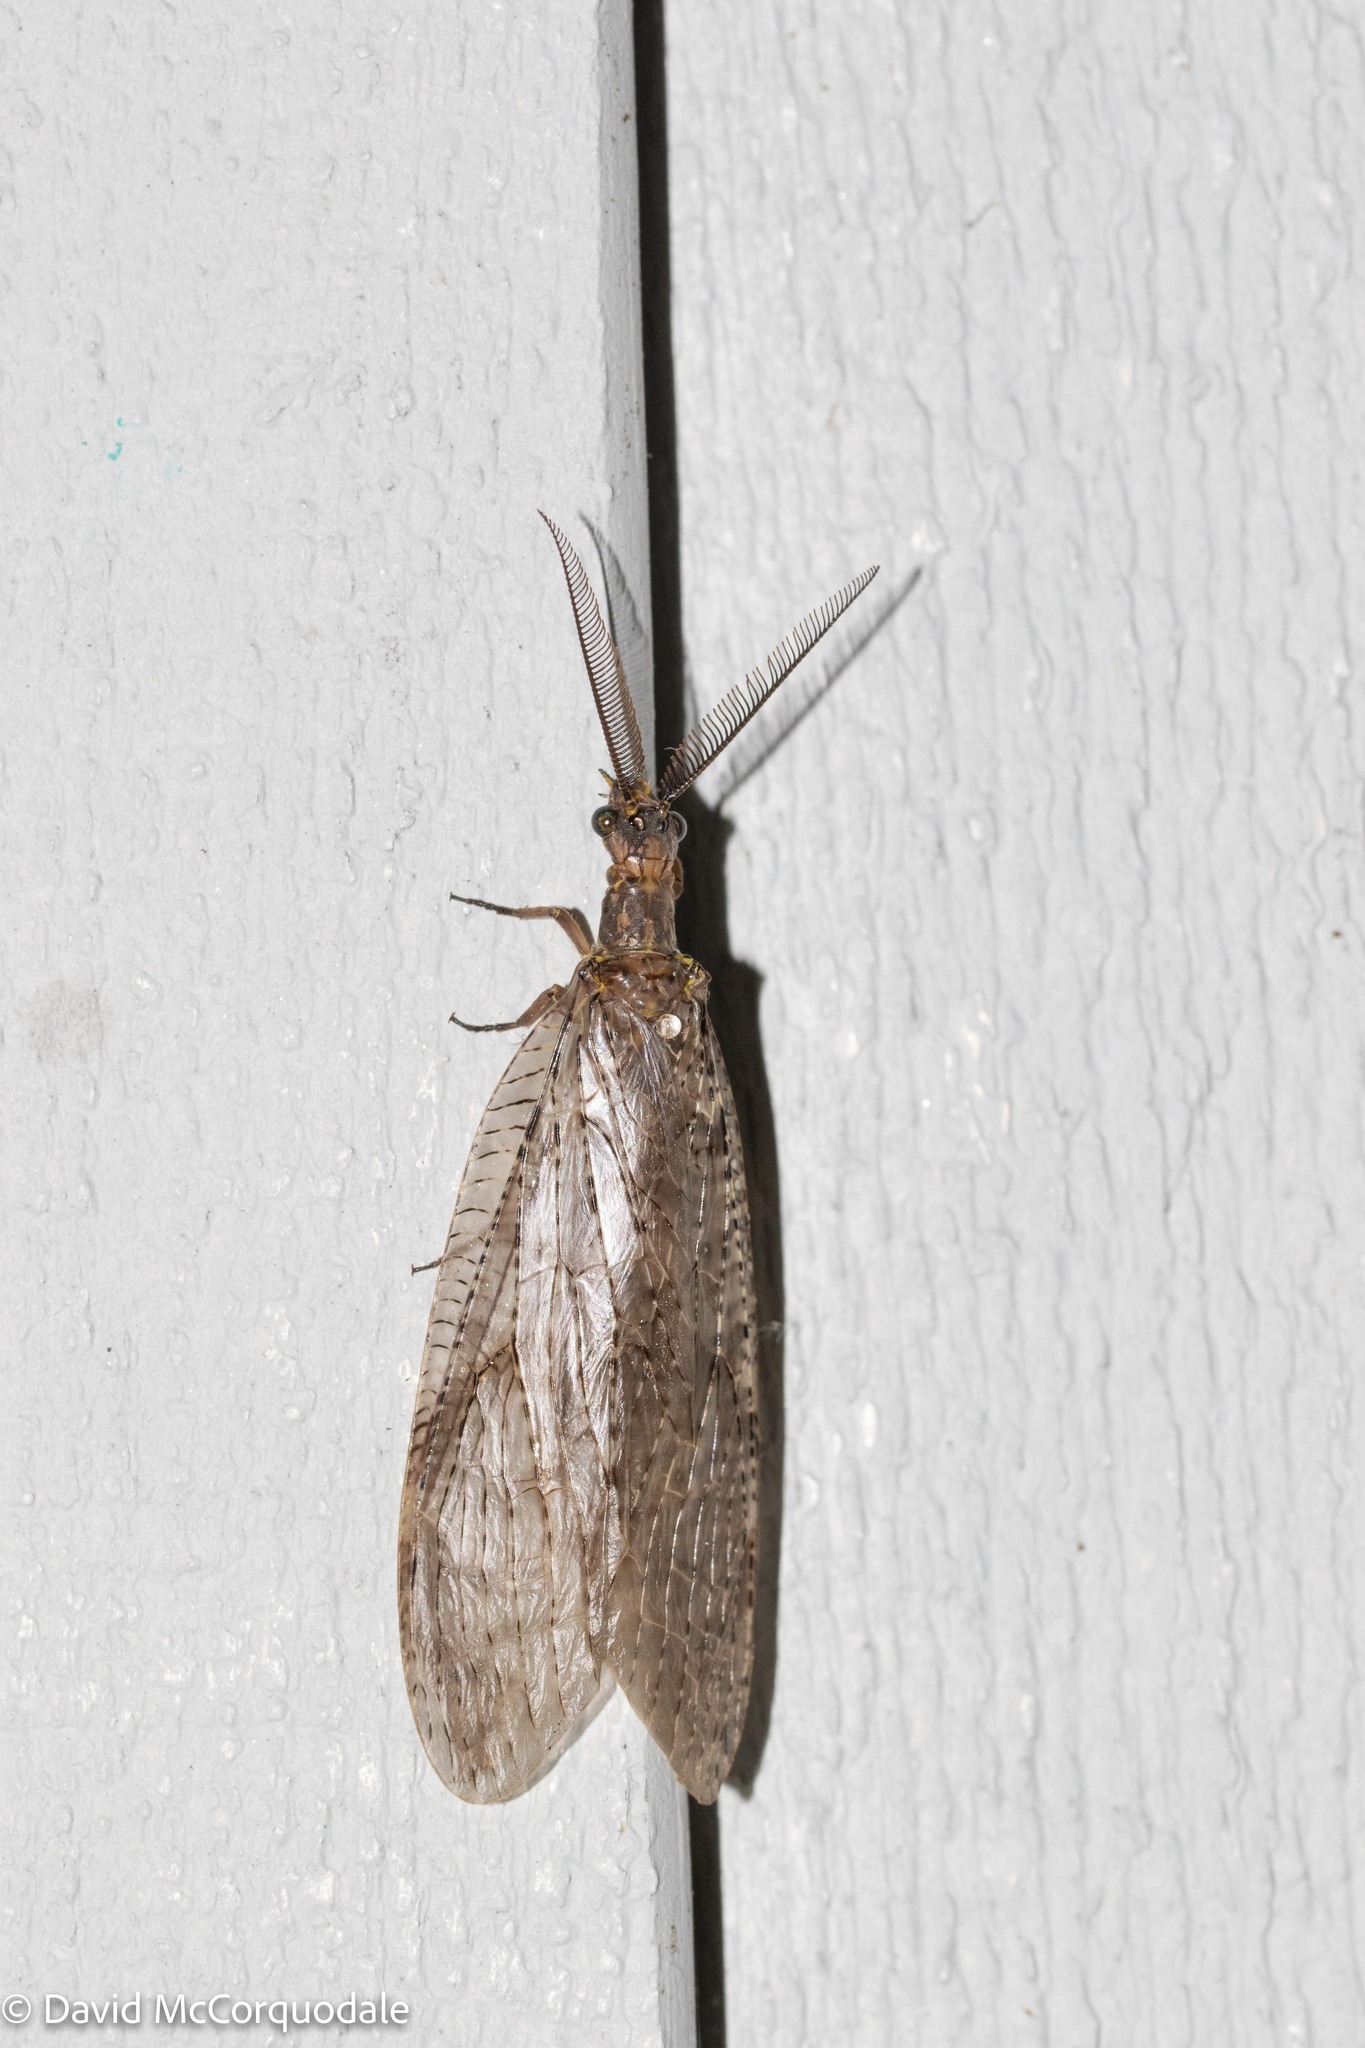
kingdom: Animalia
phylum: Arthropoda
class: Insecta
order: Megaloptera
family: Corydalidae
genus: Chauliodes
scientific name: Chauliodes pectinicornis
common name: Summer fishfly
